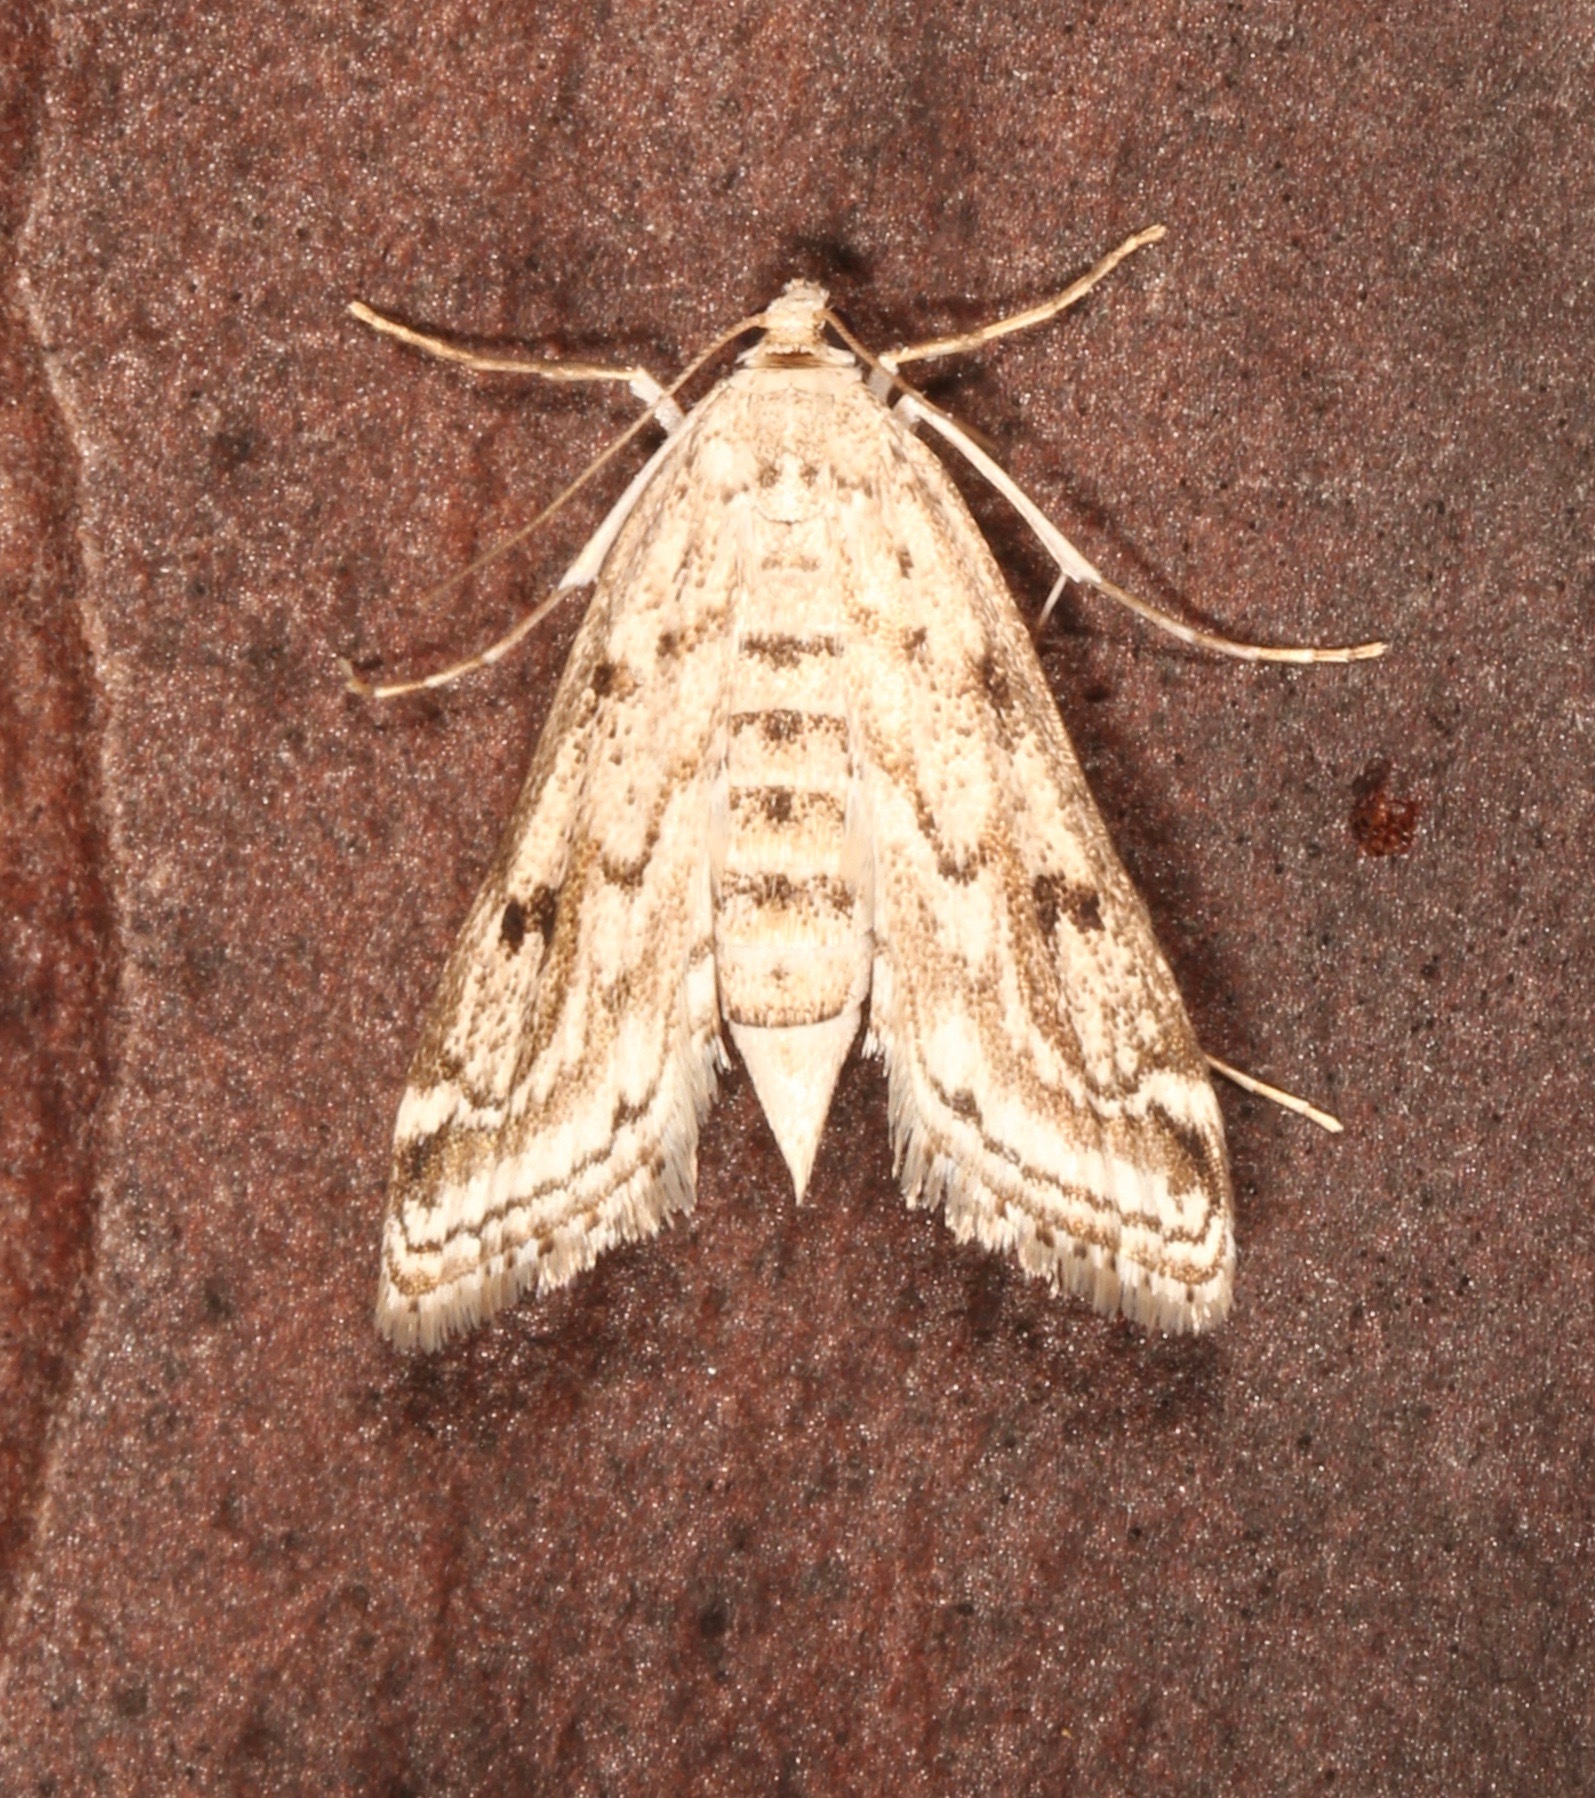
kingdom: Animalia
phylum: Arthropoda
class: Insecta
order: Lepidoptera
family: Crambidae
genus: Parapoynx
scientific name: Parapoynx allionealis
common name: Bladderwort casemaker
